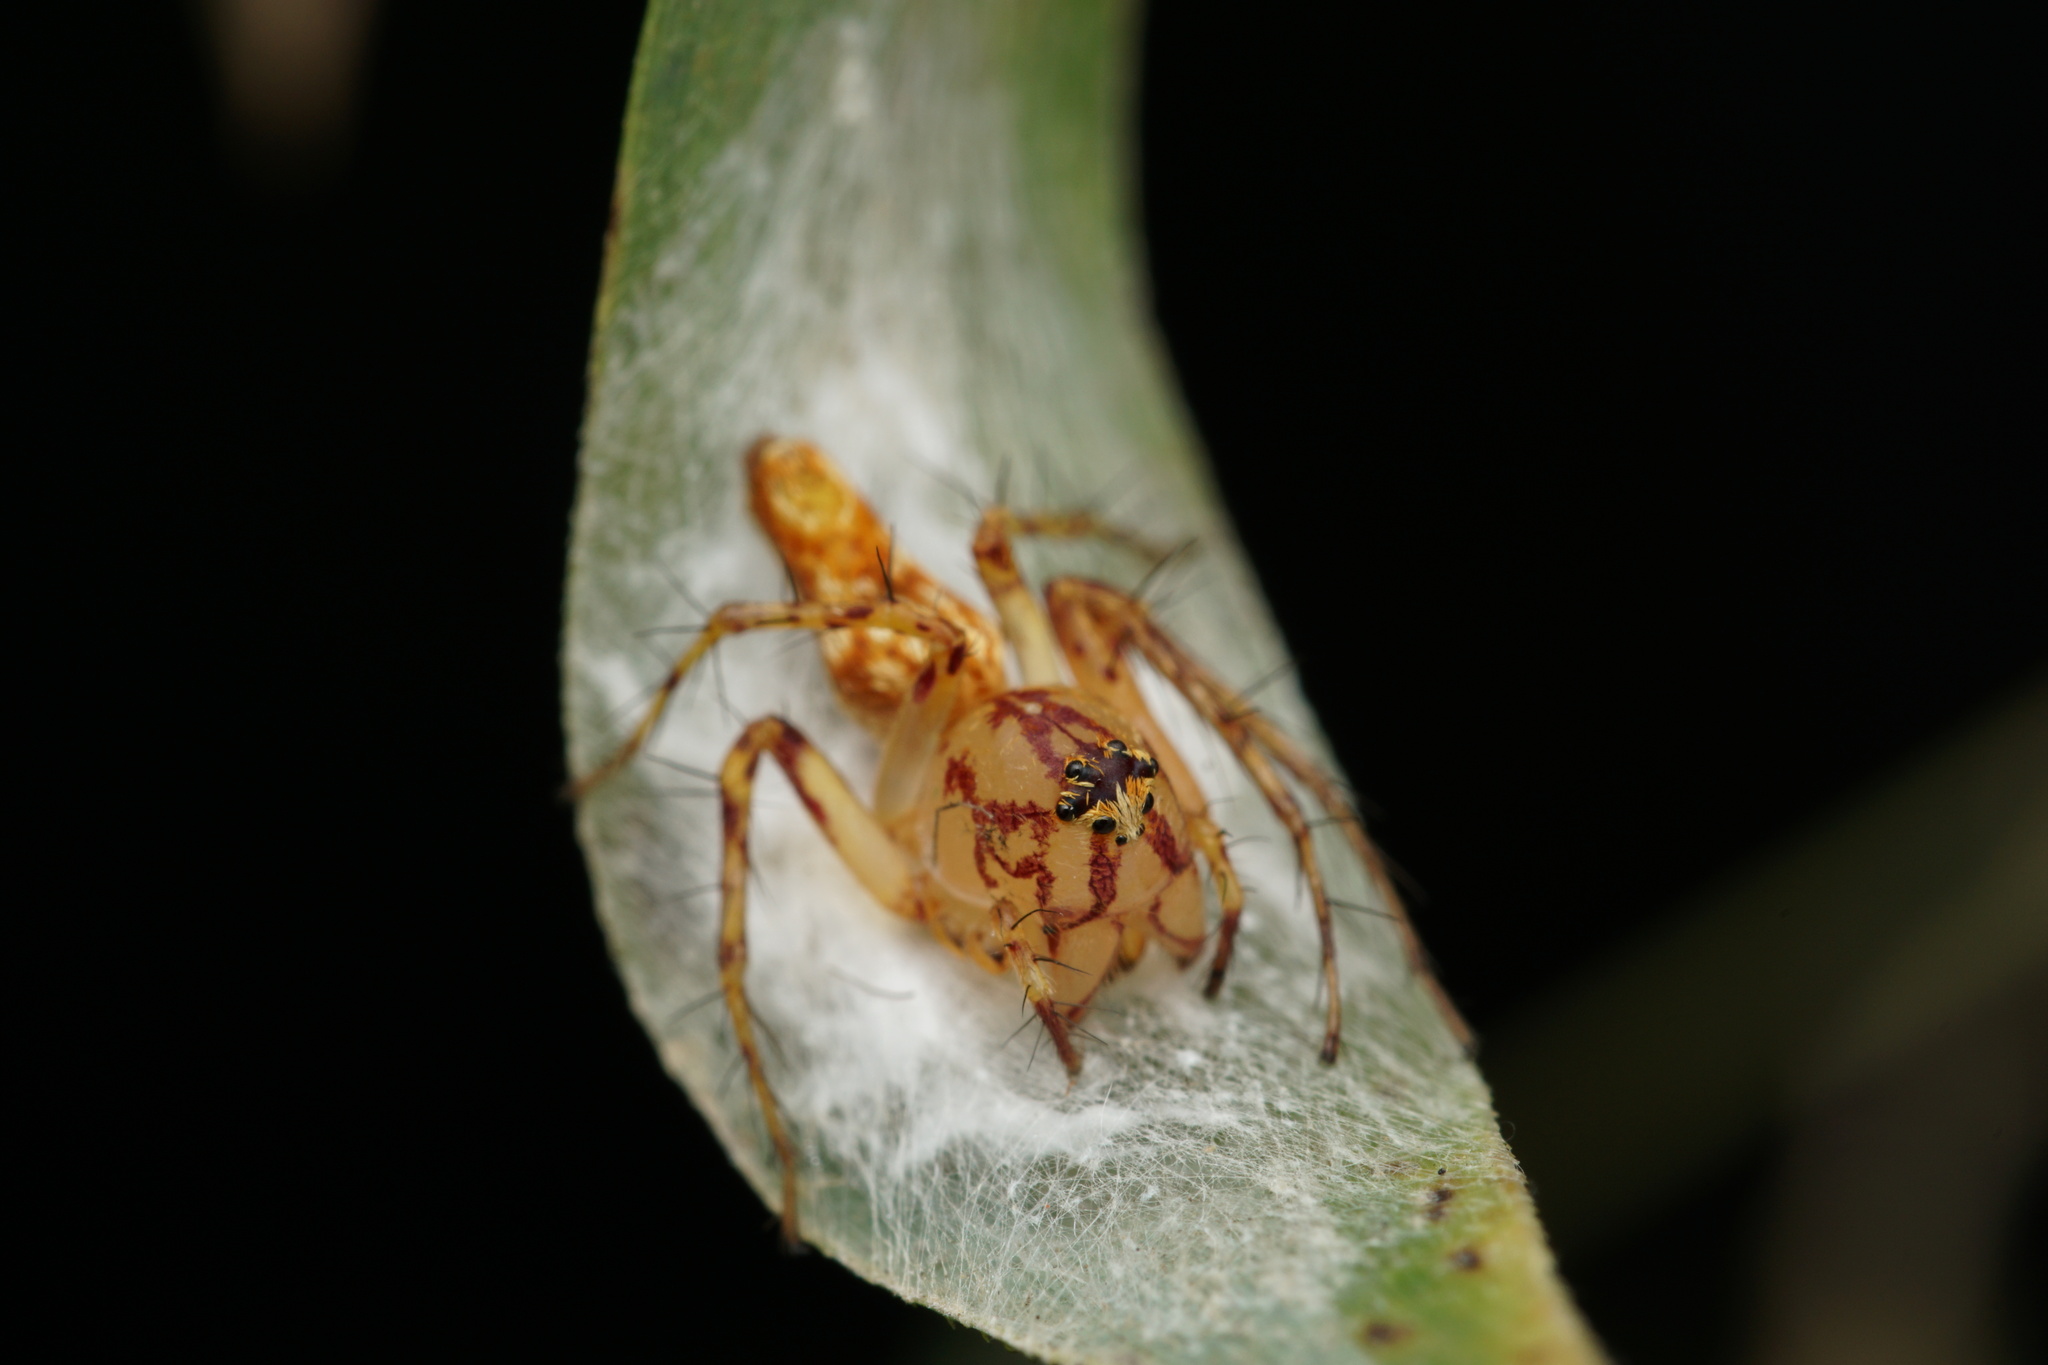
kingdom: Animalia
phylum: Arthropoda
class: Arachnida
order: Araneae
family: Oxyopidae
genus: Oxyopes
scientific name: Oxyopes incertus
